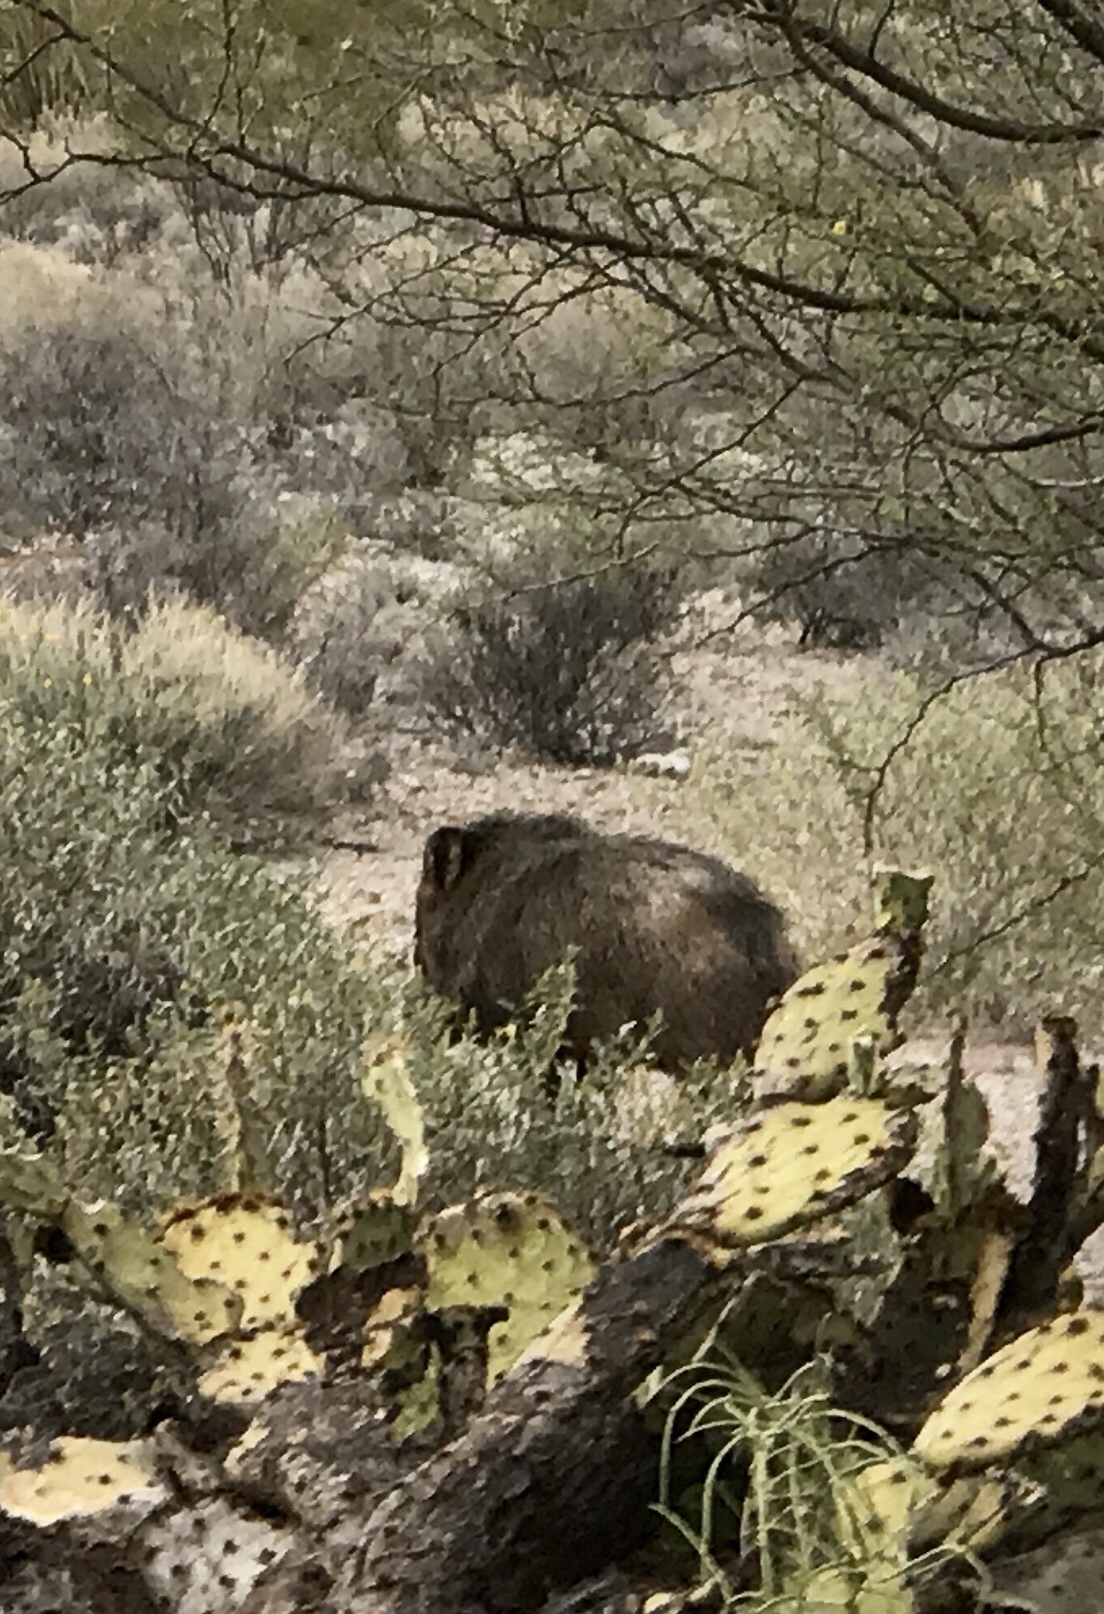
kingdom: Animalia
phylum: Chordata
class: Mammalia
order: Artiodactyla
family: Tayassuidae
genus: Pecari
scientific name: Pecari tajacu
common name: Collared peccary
